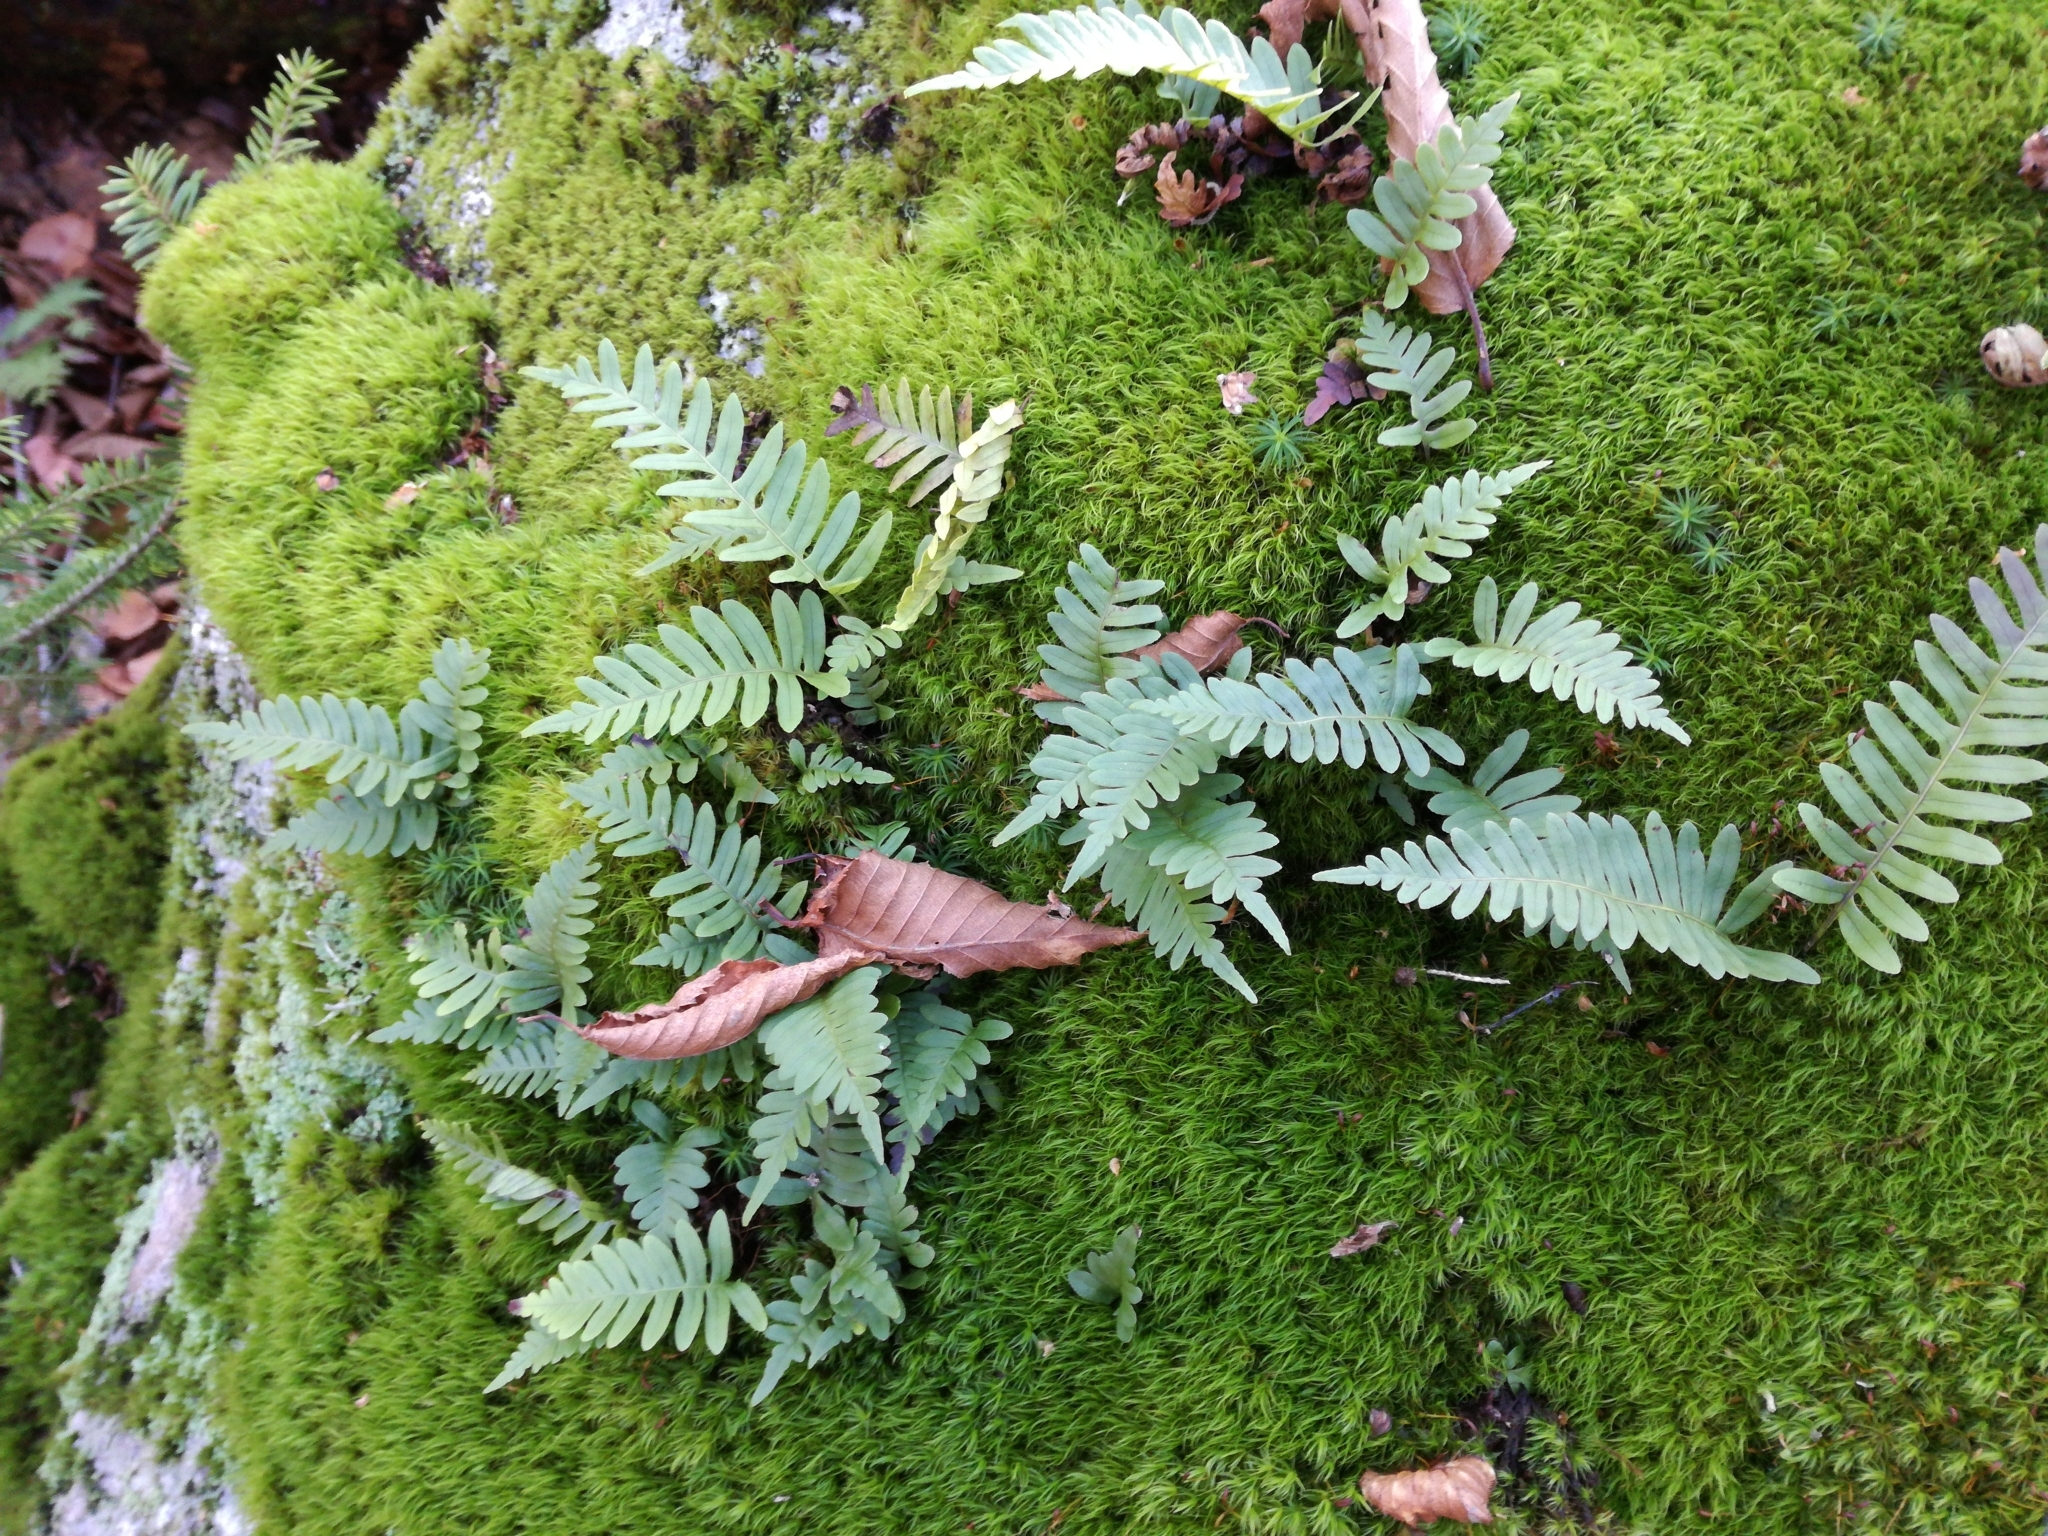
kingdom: Plantae
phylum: Tracheophyta
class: Polypodiopsida
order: Polypodiales
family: Polypodiaceae
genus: Polypodium
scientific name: Polypodium virginianum
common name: American wall fern
